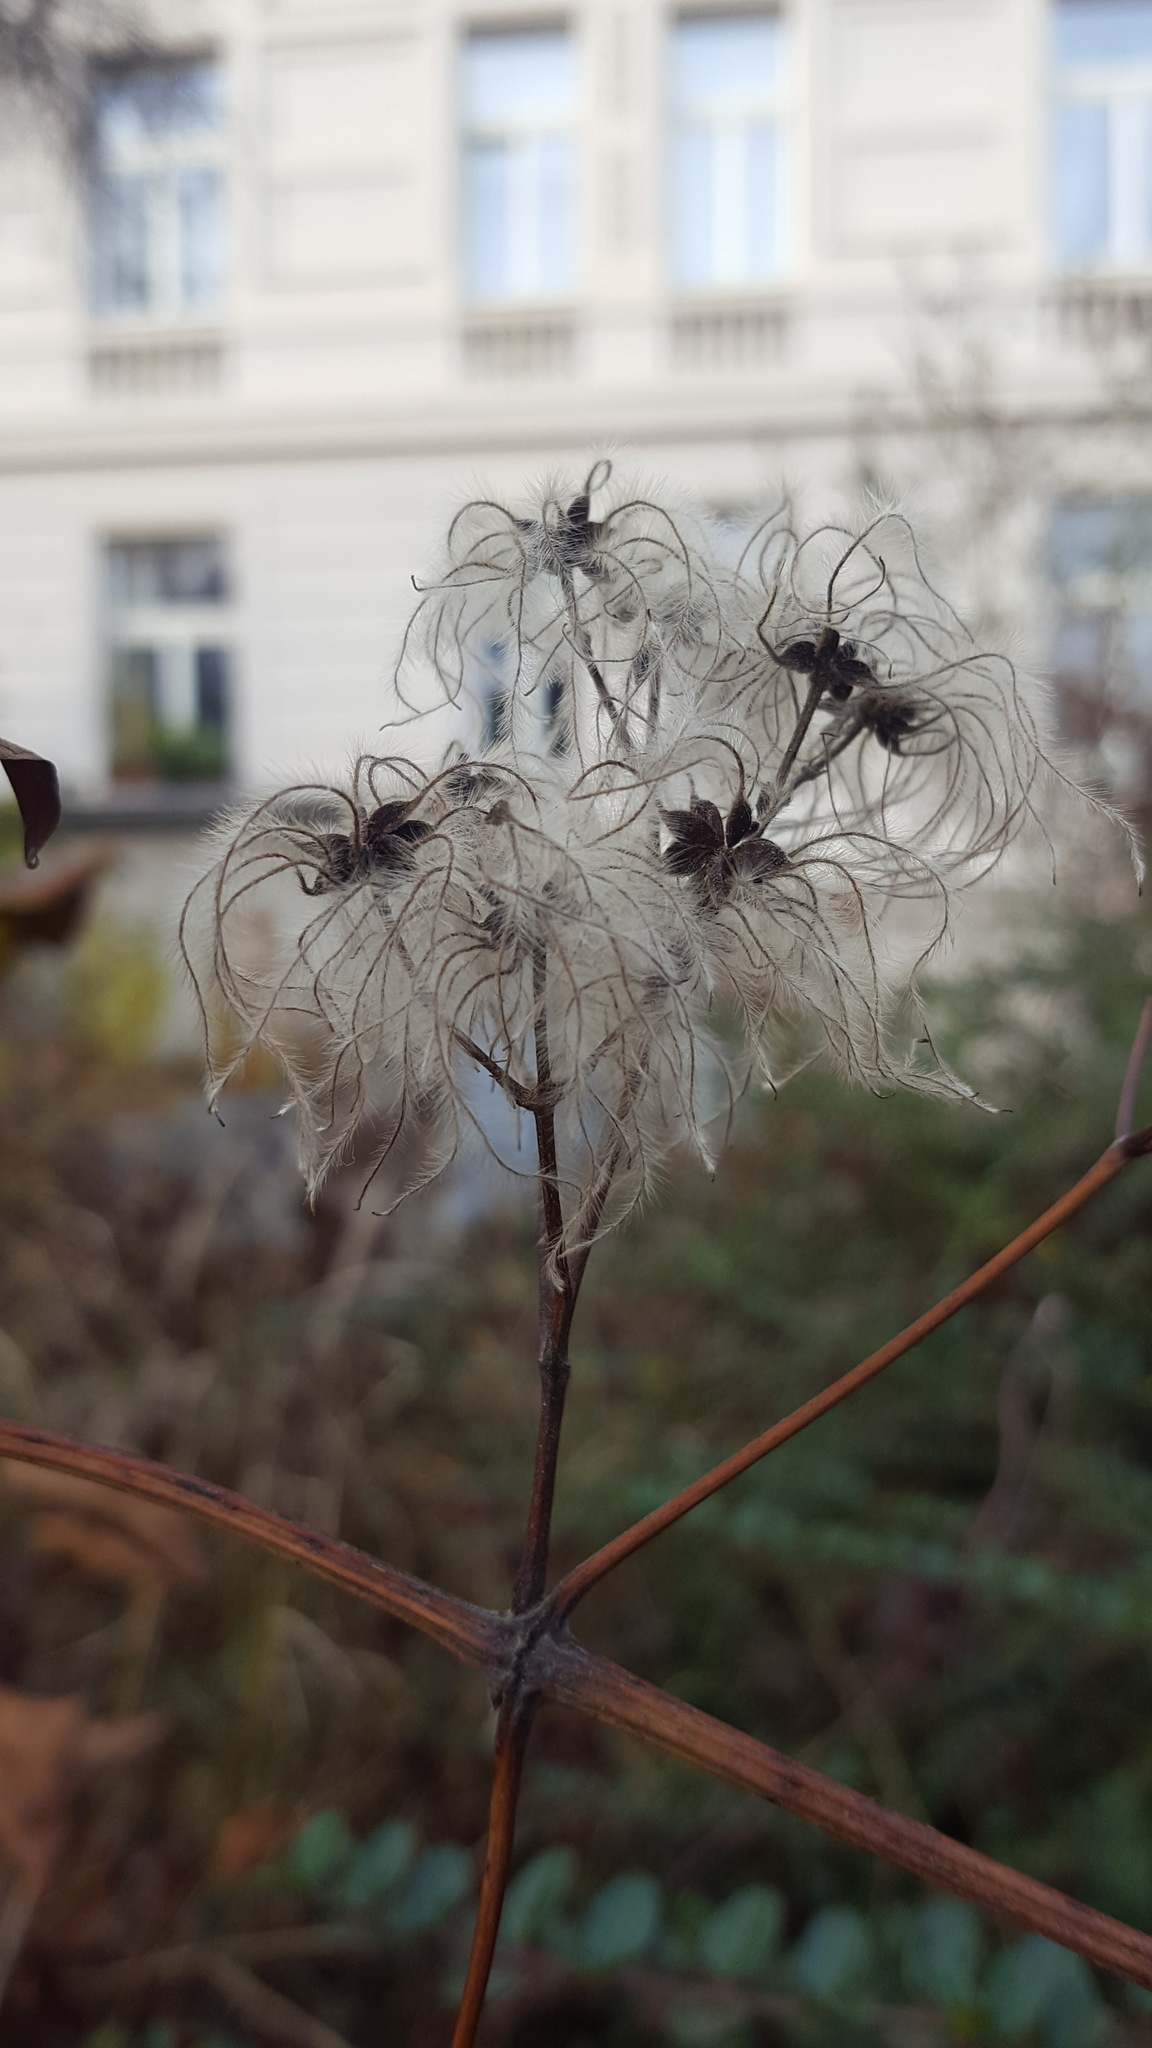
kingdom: Plantae
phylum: Tracheophyta
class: Magnoliopsida
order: Ranunculales
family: Ranunculaceae
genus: Clematis
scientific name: Clematis vitalba
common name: Evergreen clematis
